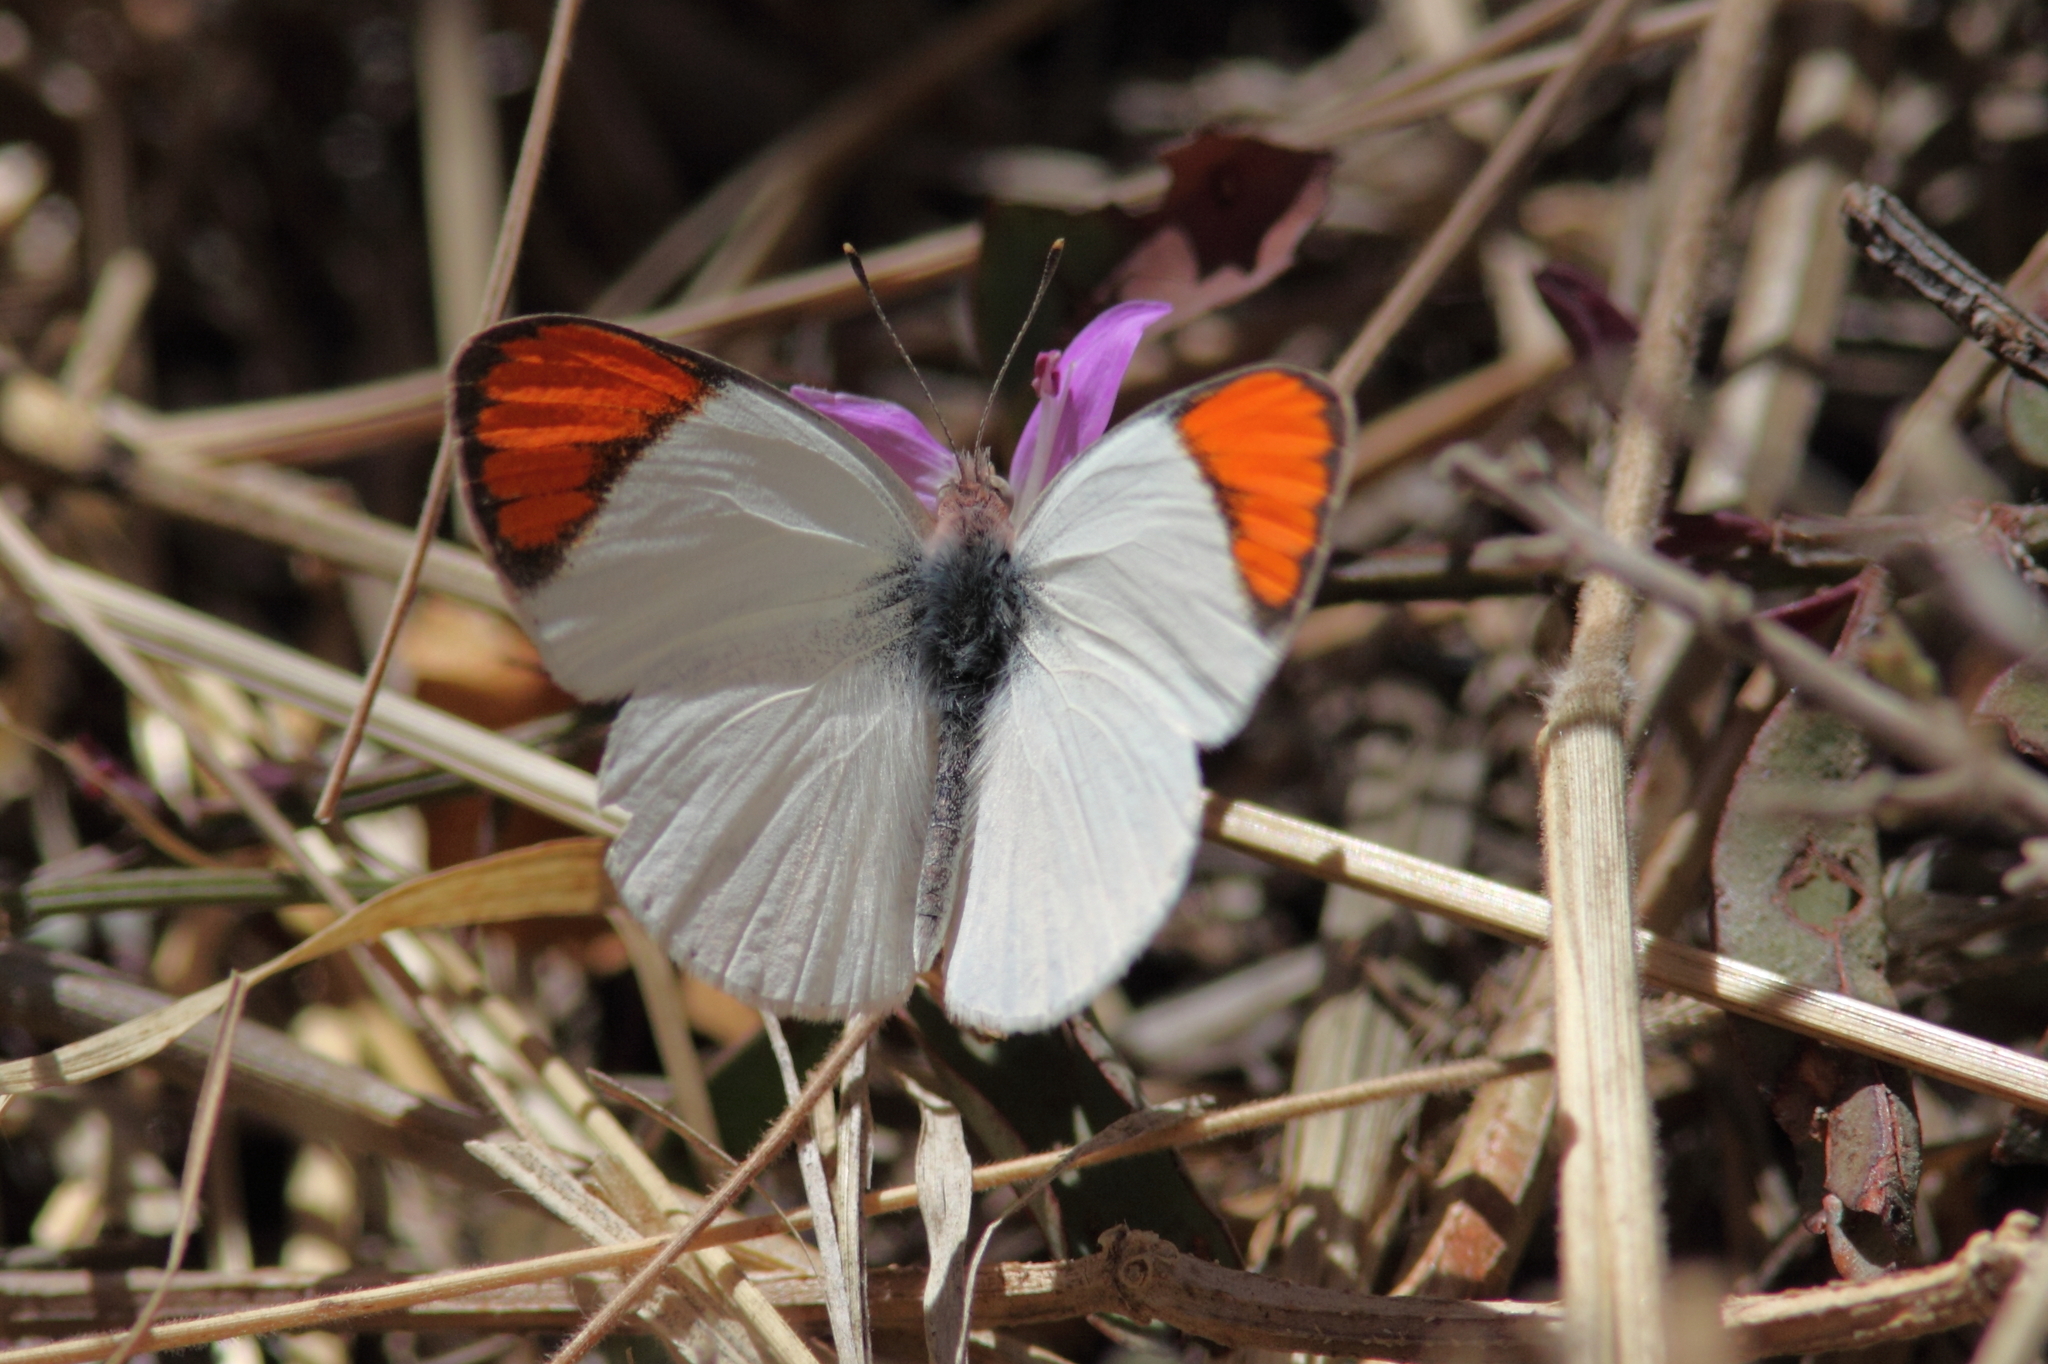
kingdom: Animalia
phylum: Arthropoda
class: Insecta
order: Lepidoptera
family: Pieridae
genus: Colotis
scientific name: Colotis annae
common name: Scarlet tip
